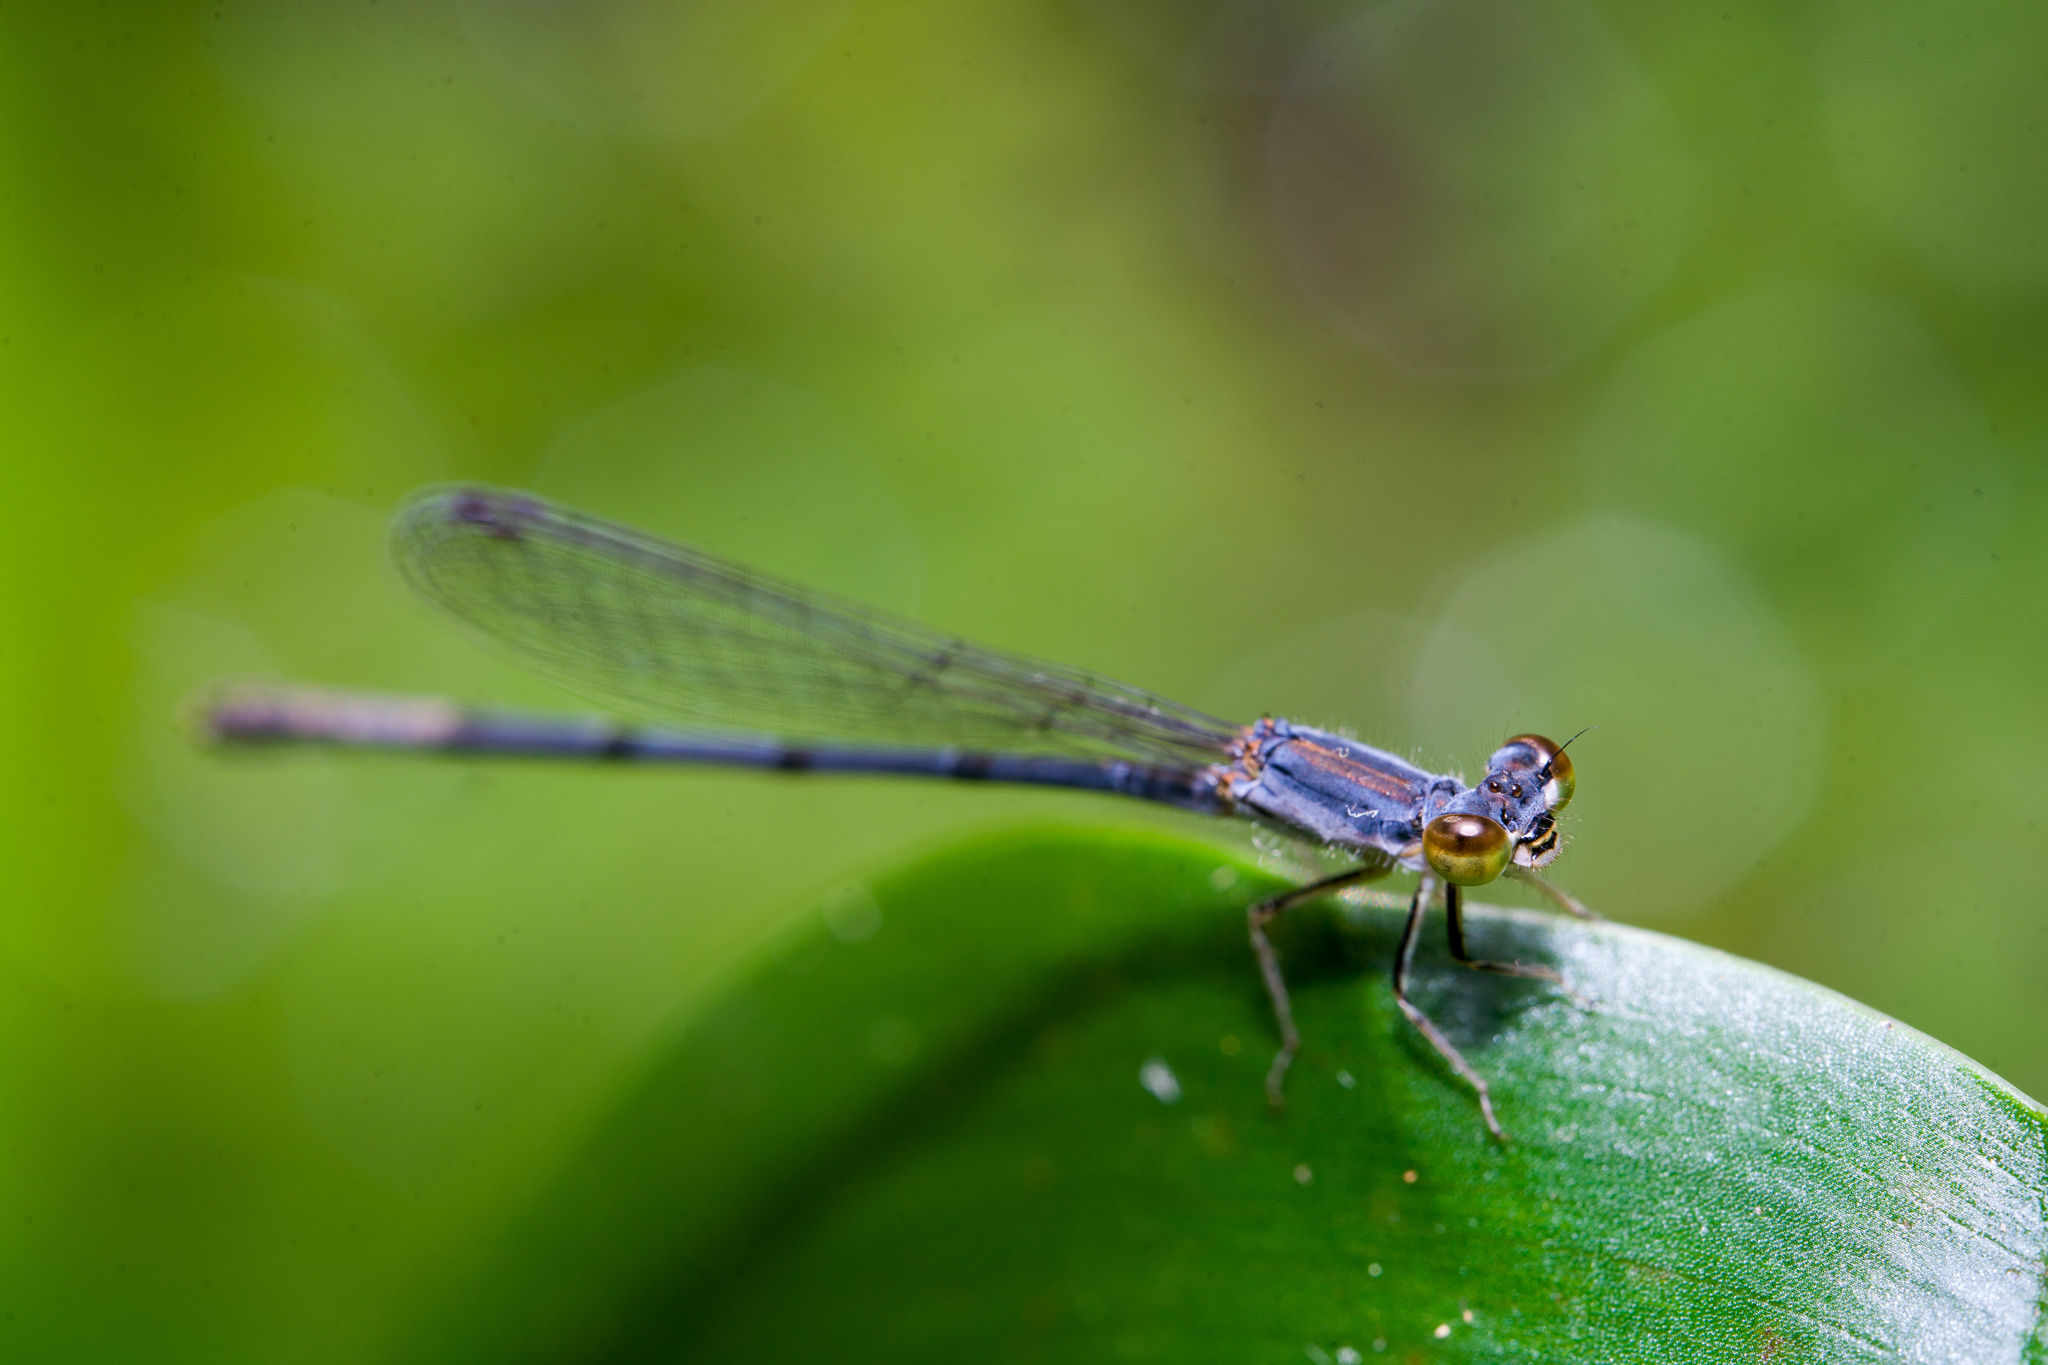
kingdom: Animalia
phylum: Arthropoda
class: Insecta
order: Odonata
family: Coenagrionidae
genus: Ischnura
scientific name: Ischnura posita
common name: Fragile forktail
